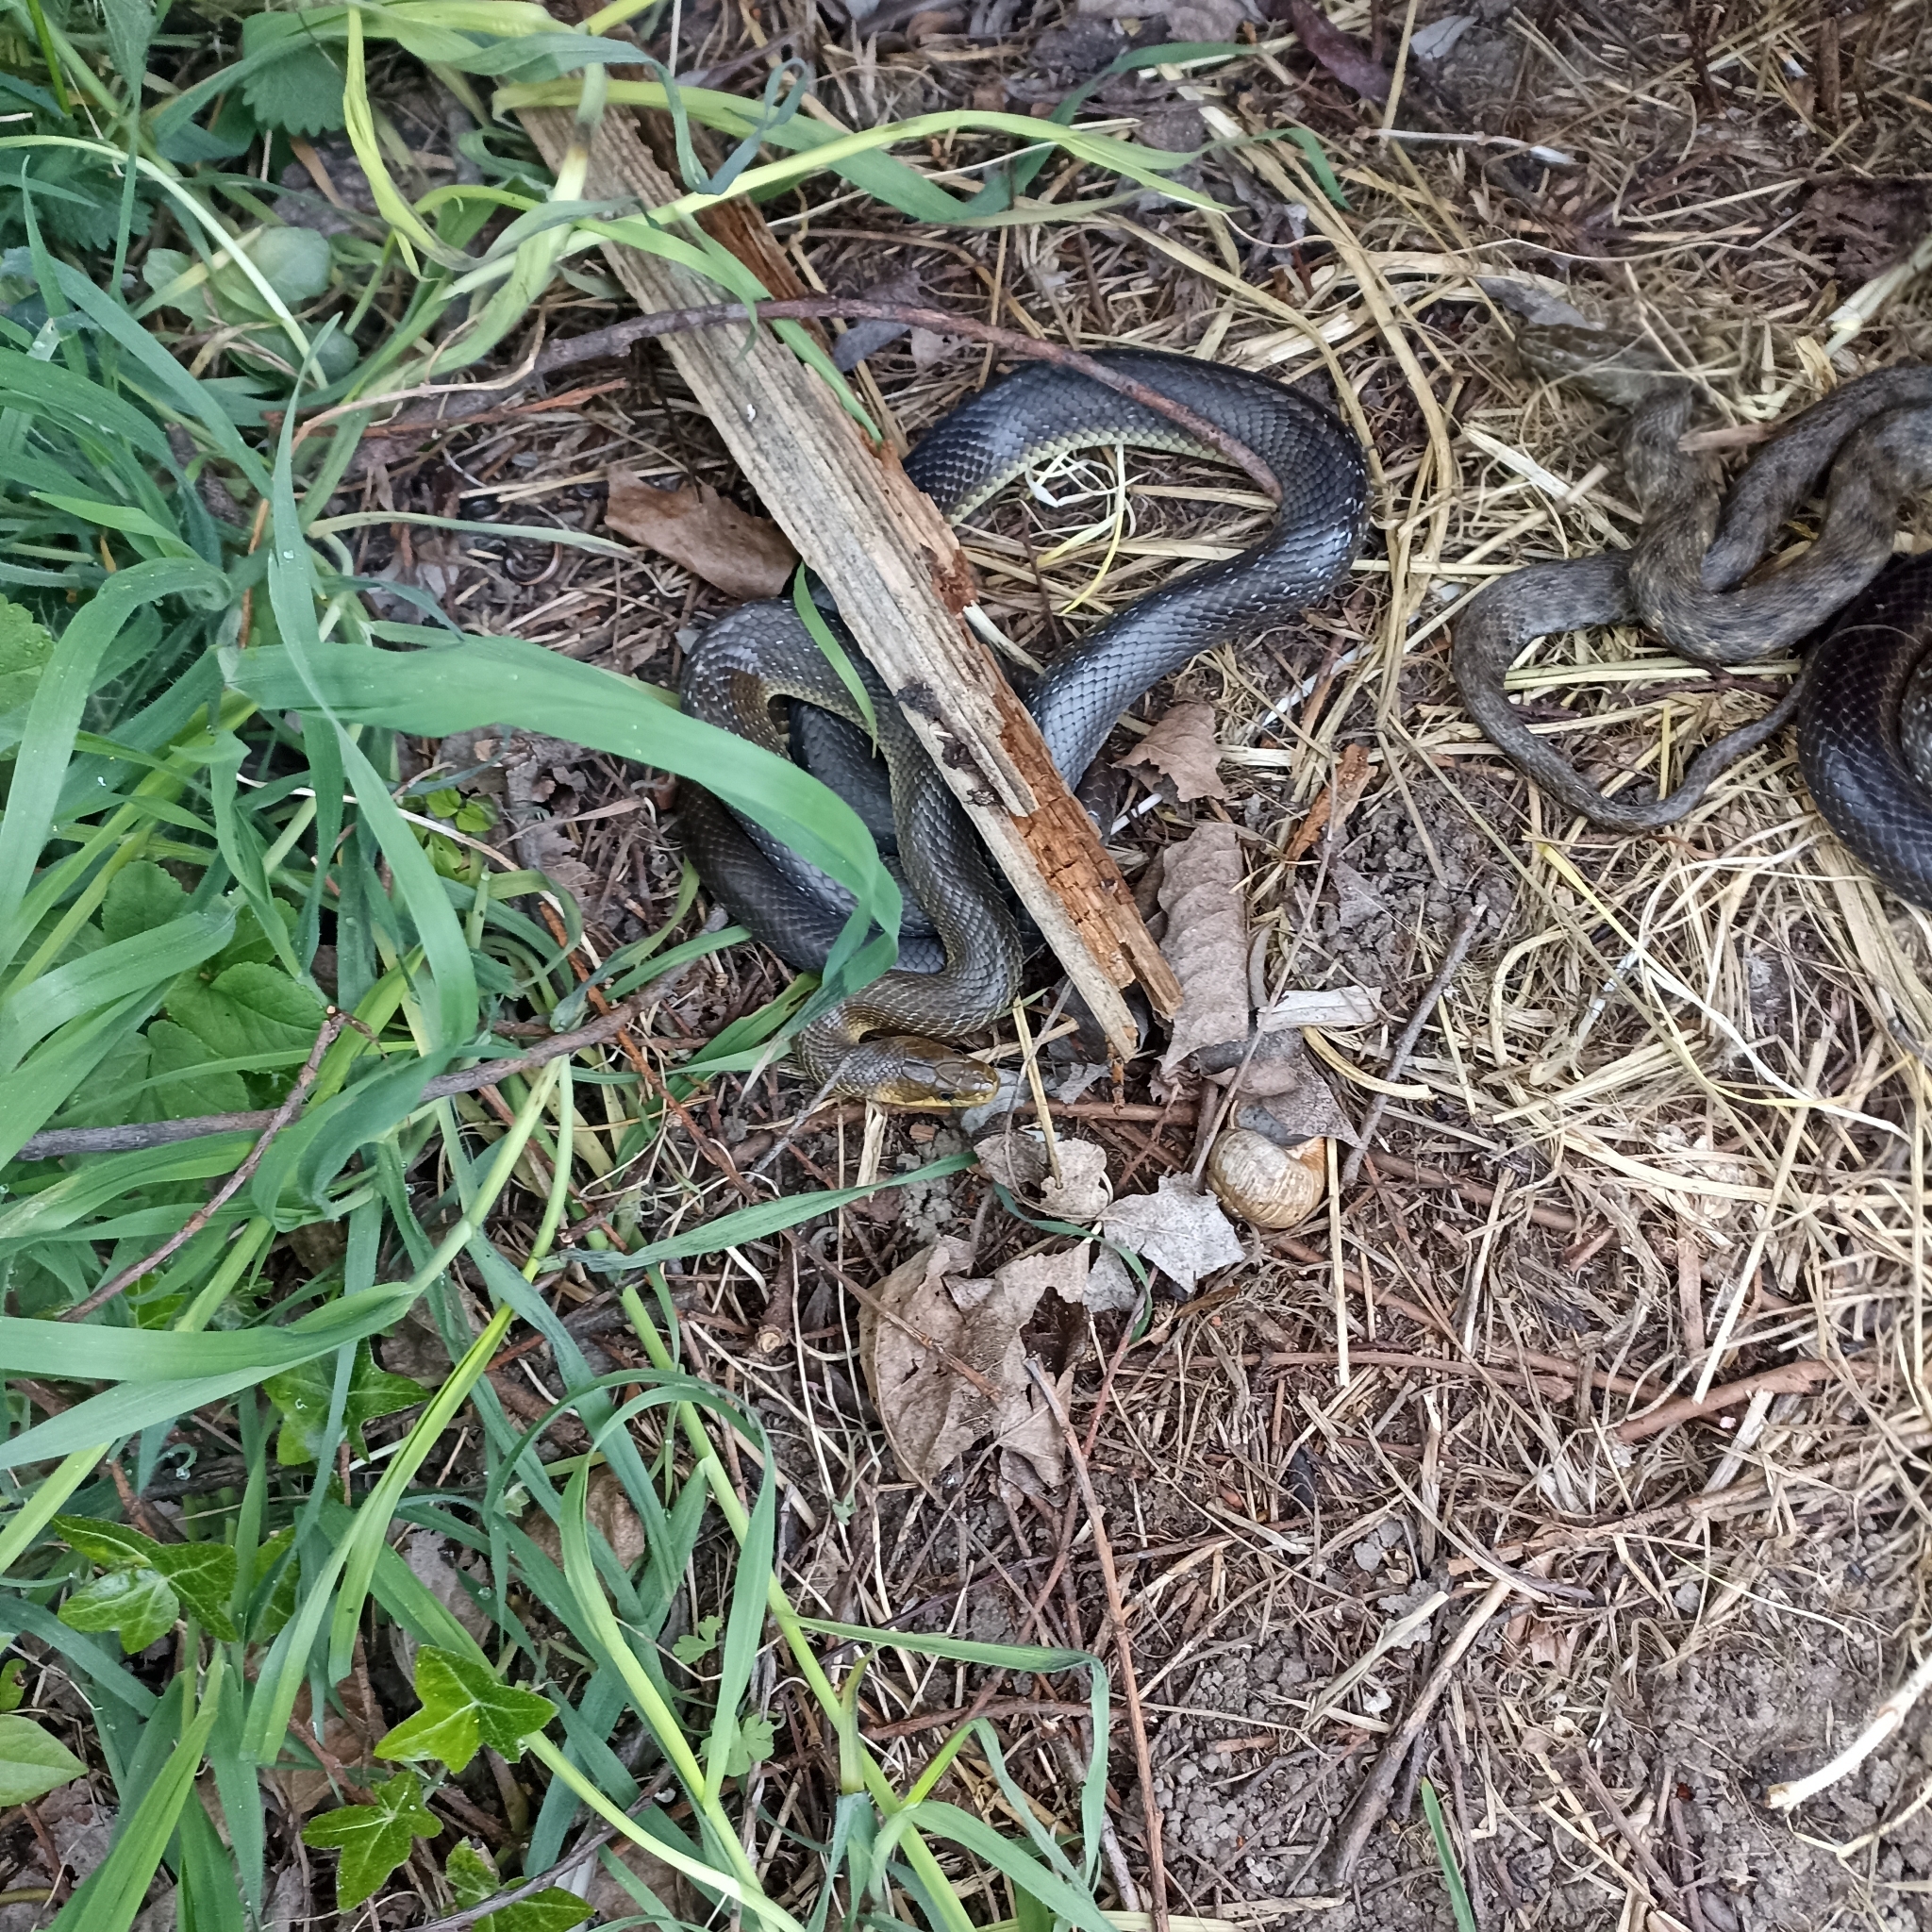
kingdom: Animalia
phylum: Chordata
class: Squamata
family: Colubridae
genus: Zamenis
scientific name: Zamenis longissimus
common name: Aesculapean snake
